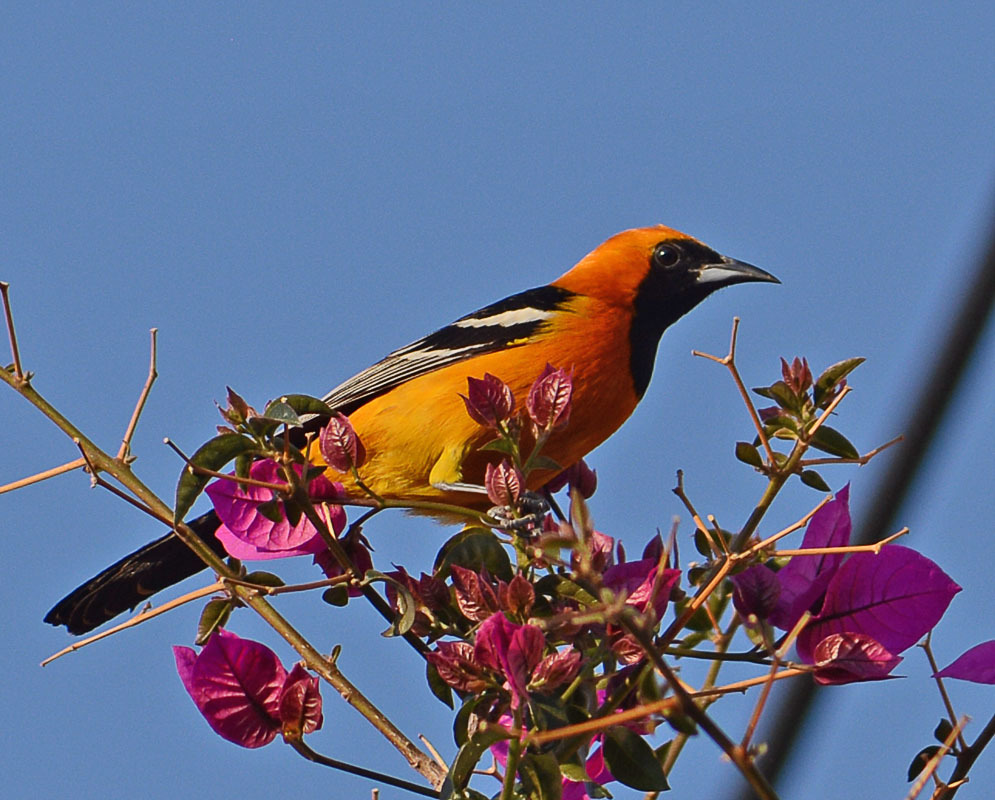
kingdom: Animalia
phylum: Chordata
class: Aves
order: Passeriformes
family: Icteridae
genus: Icterus
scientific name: Icterus cucullatus
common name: Hooded oriole
